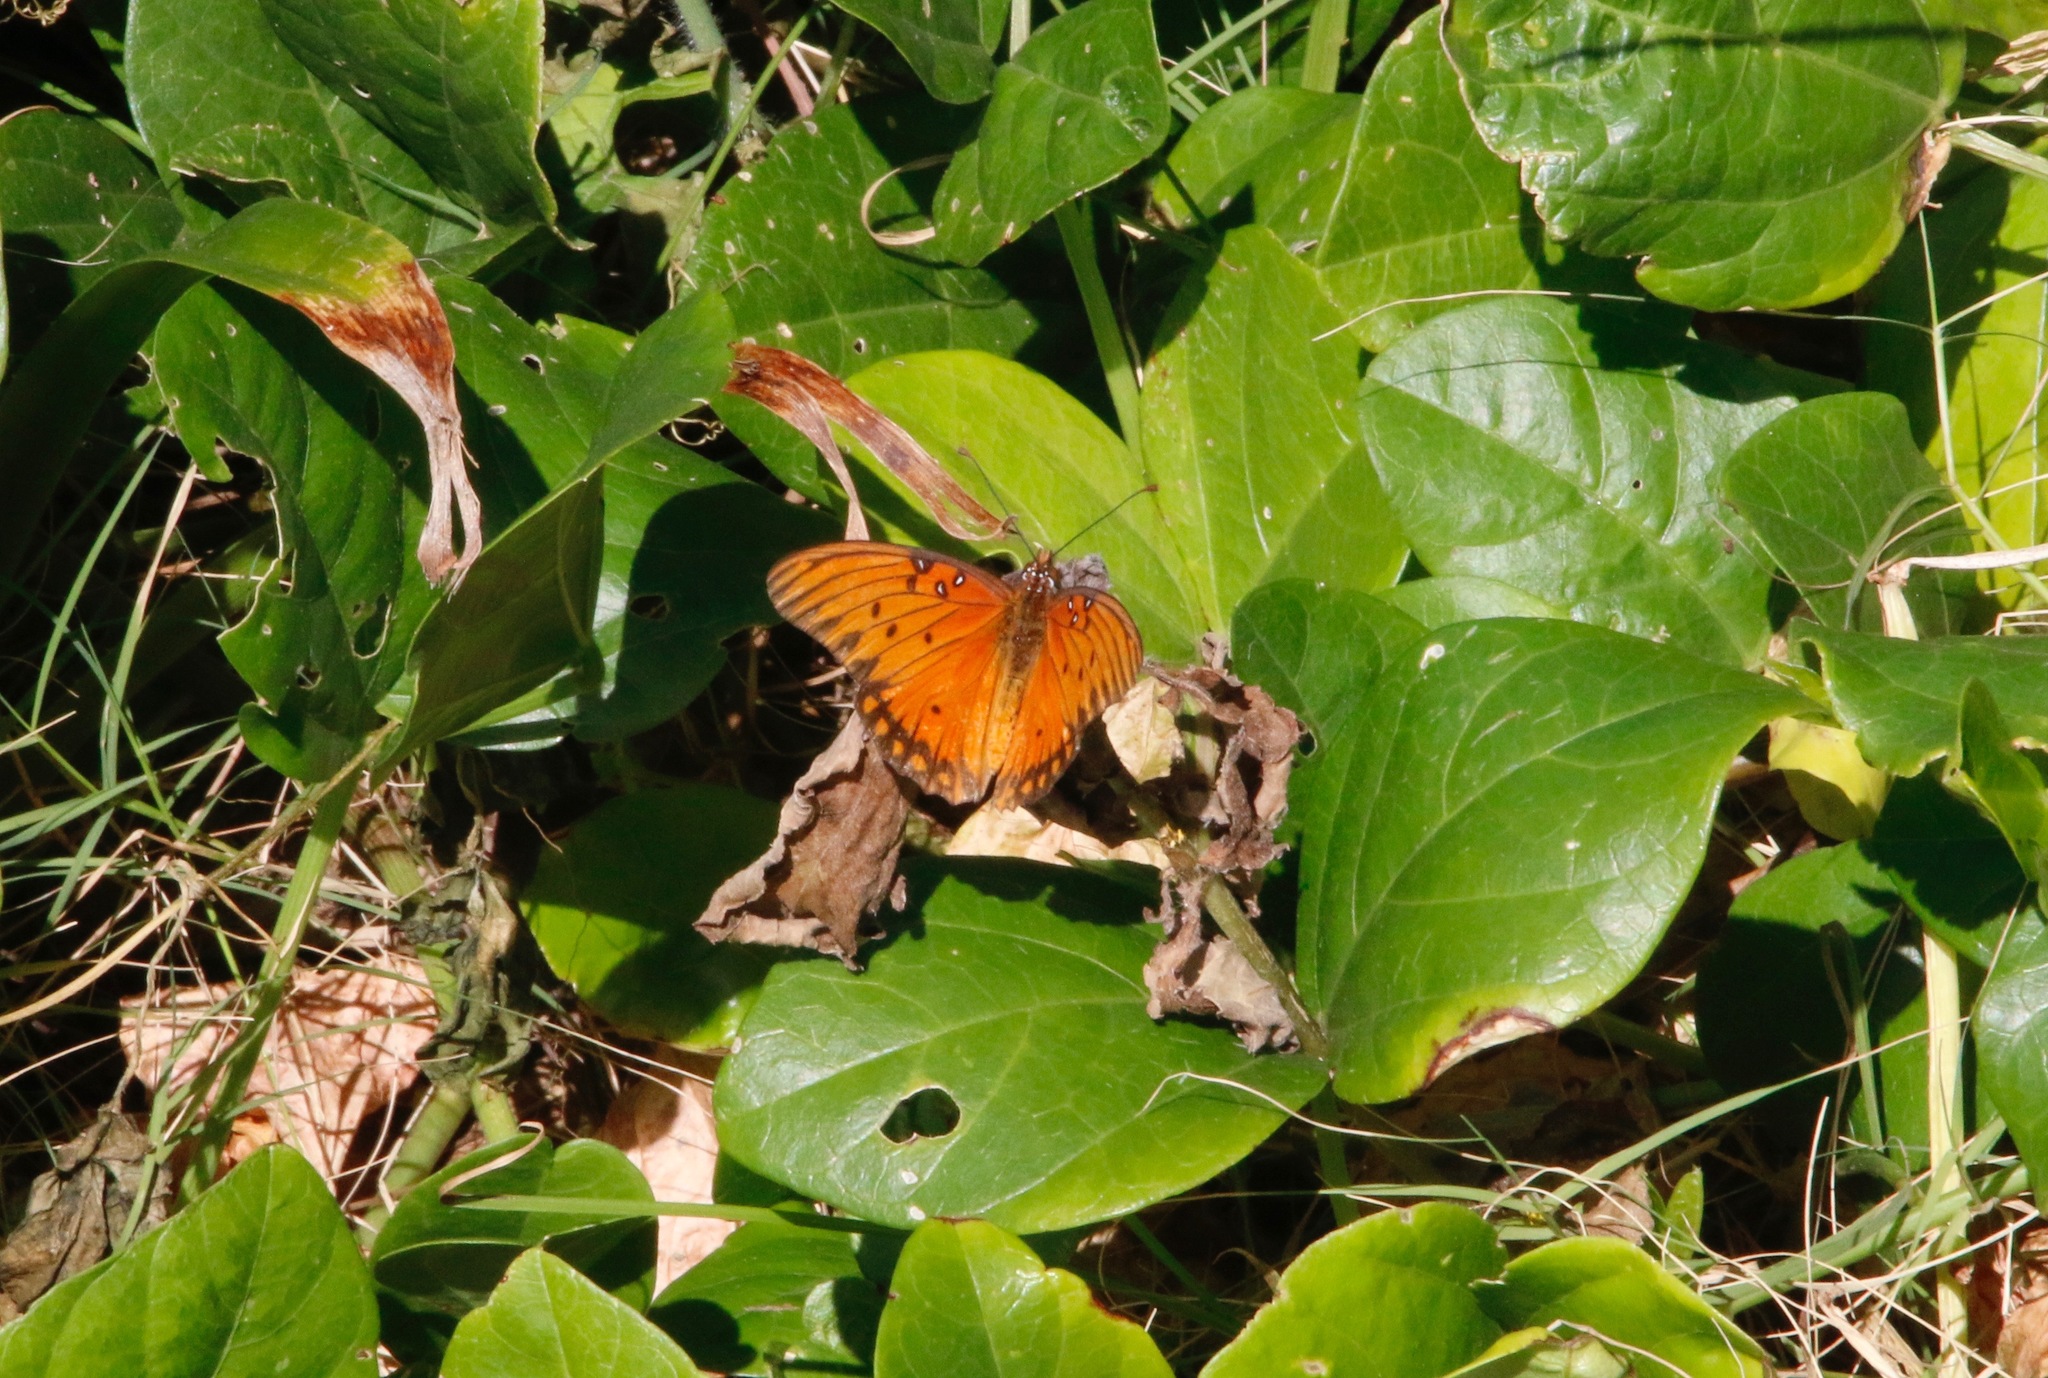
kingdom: Animalia
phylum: Arthropoda
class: Insecta
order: Lepidoptera
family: Nymphalidae
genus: Dione
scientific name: Dione vanillae
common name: Gulf fritillary
